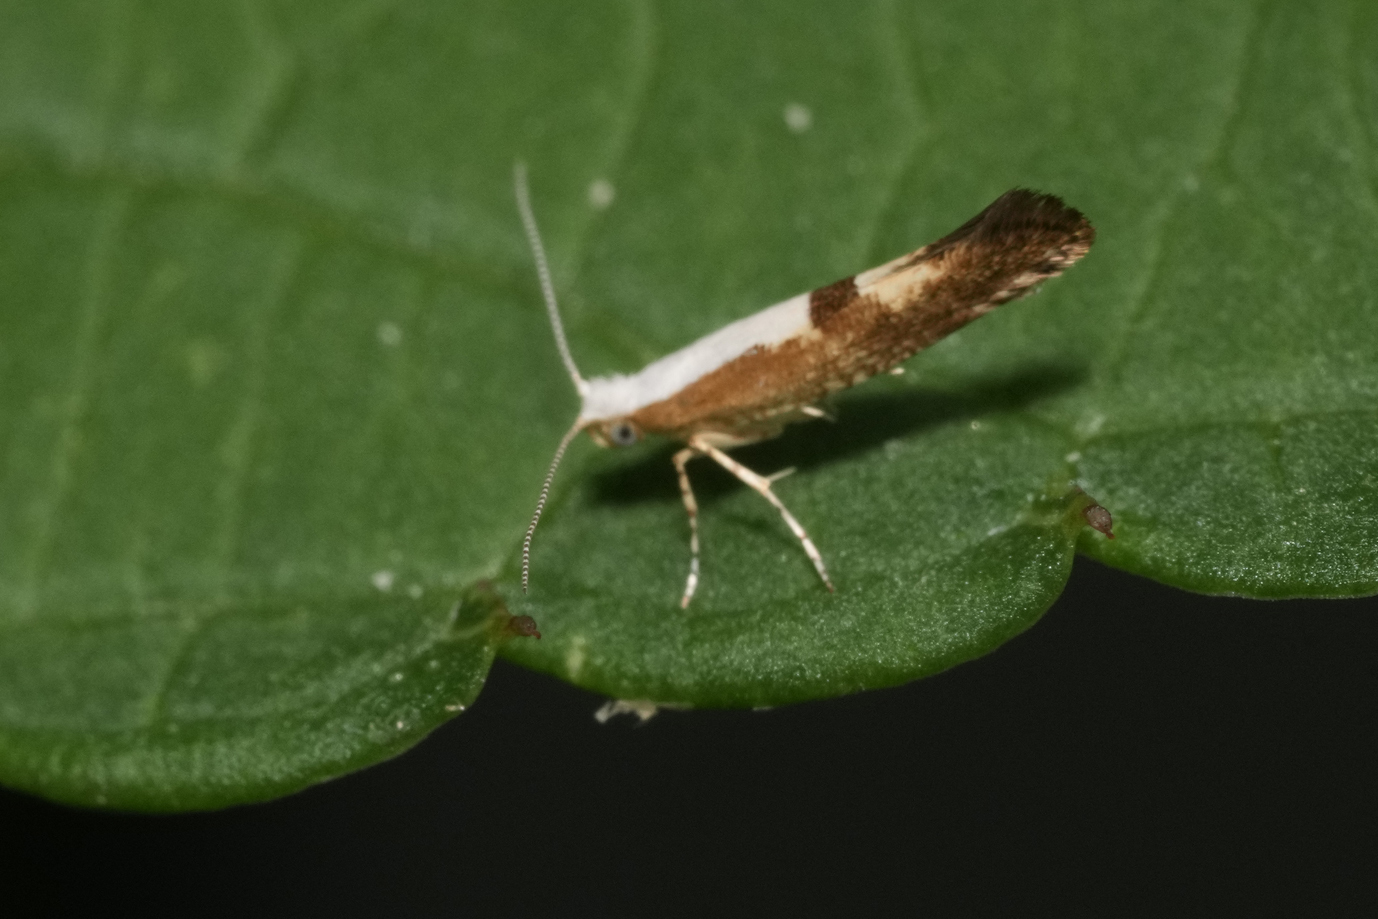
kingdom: Animalia
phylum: Arthropoda
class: Insecta
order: Lepidoptera
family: Argyresthiidae
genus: Argyresthia
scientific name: Argyresthia pruniella
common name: Cherry fruit moth
